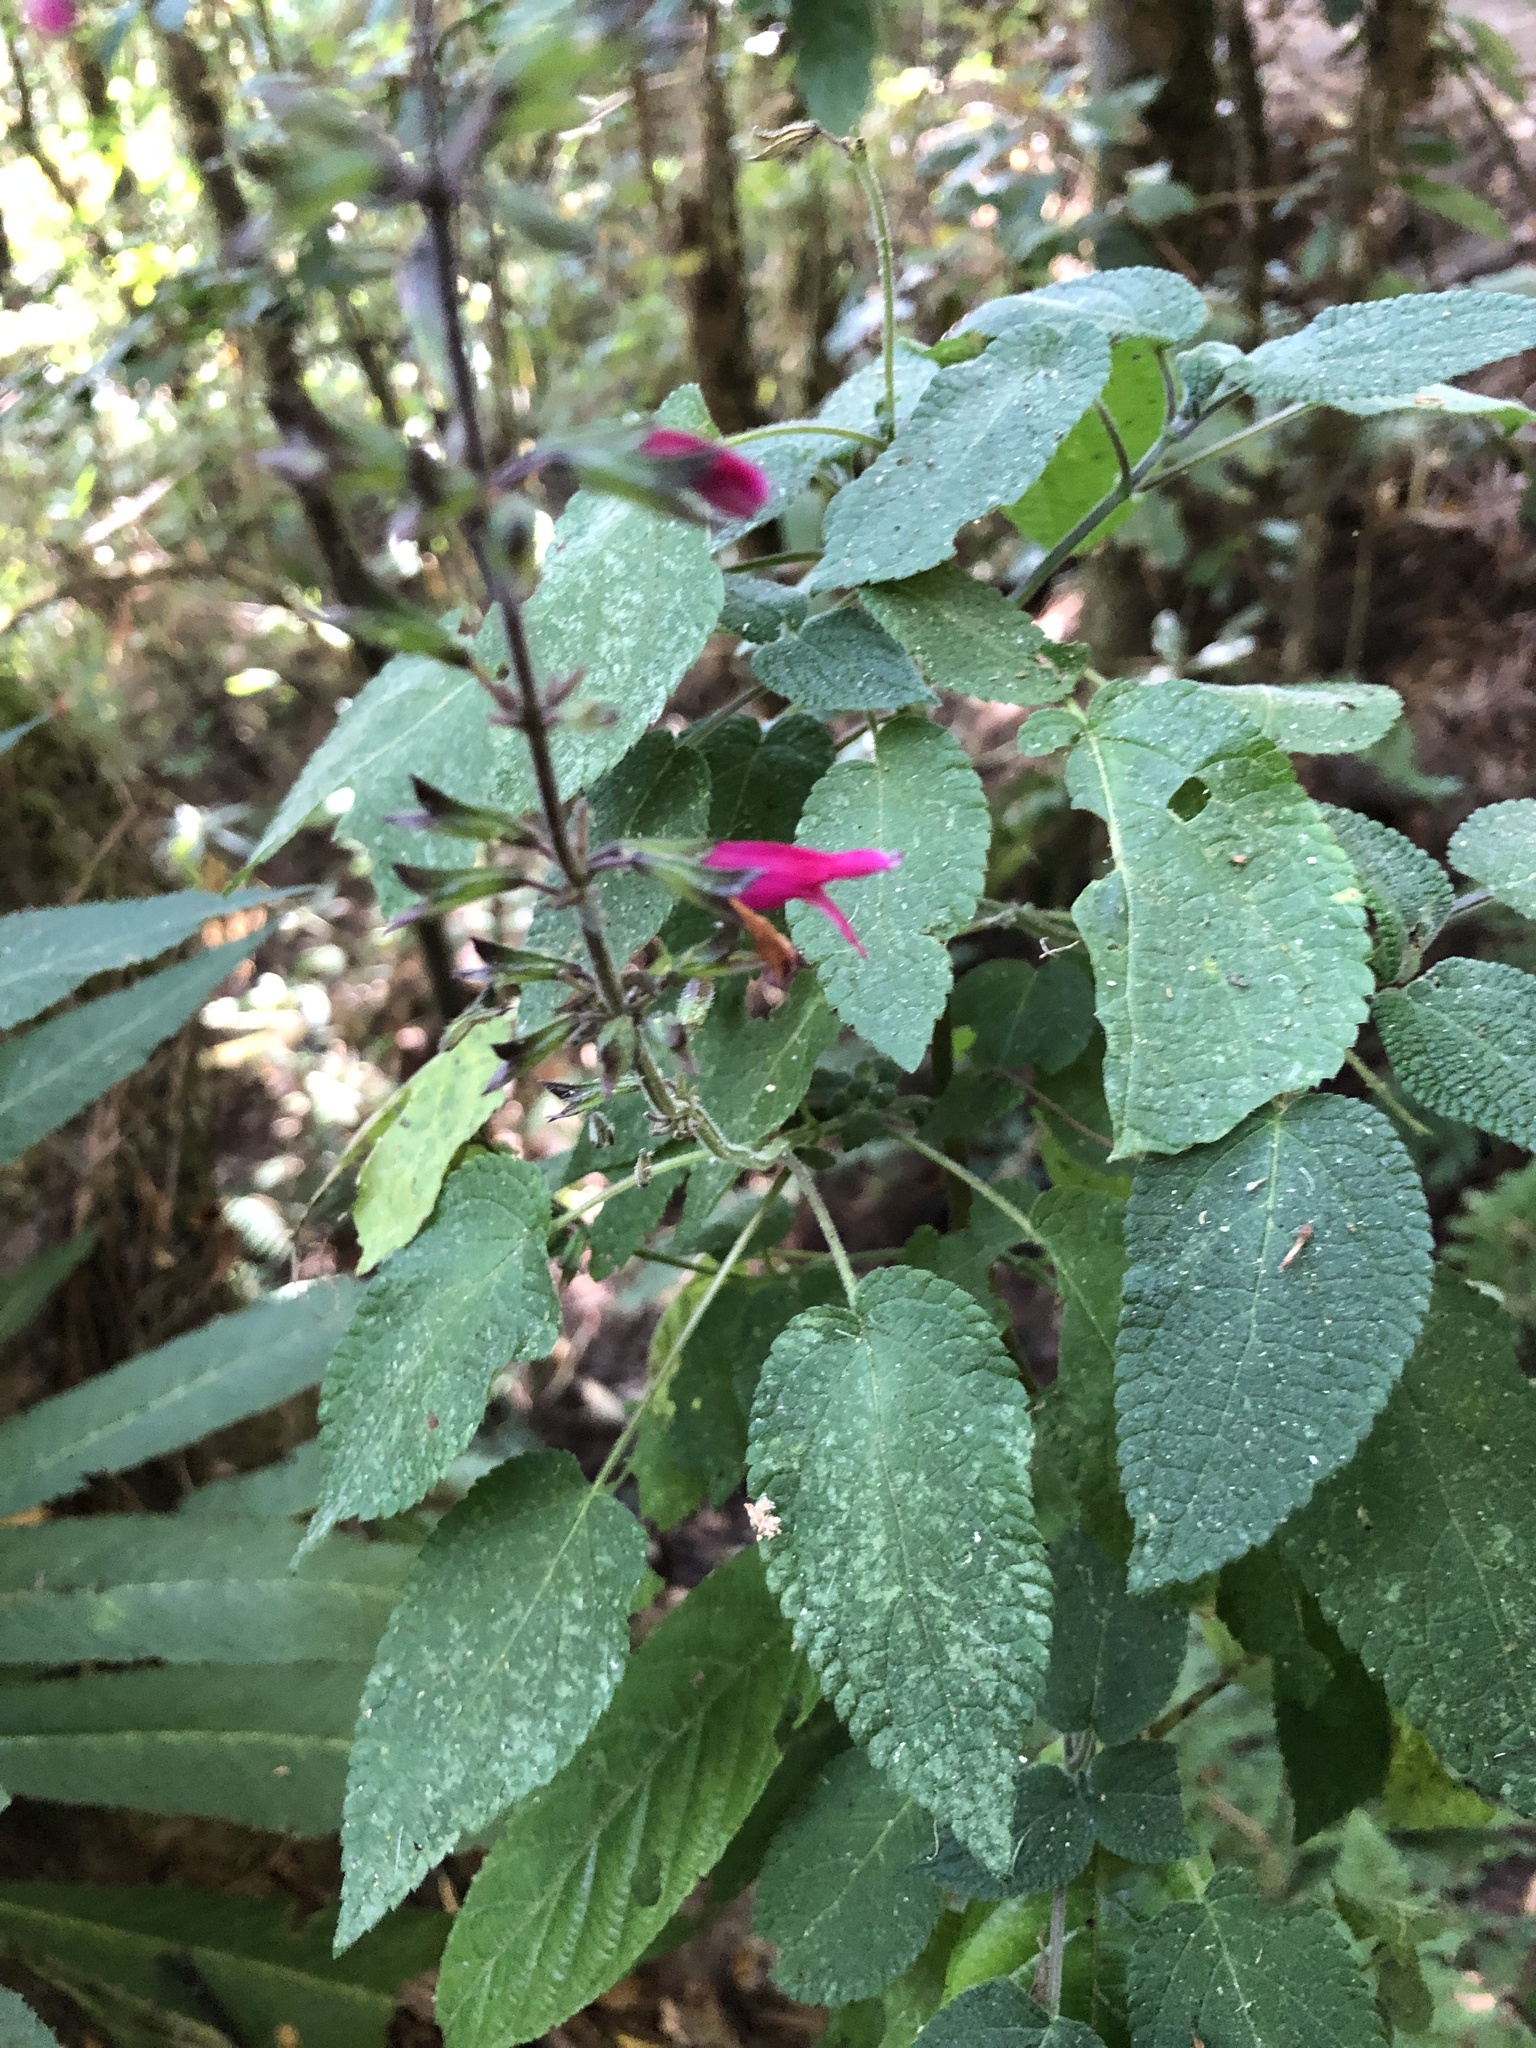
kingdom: Plantae
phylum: Tracheophyta
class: Magnoliopsida
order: Lamiales
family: Lamiaceae
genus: Salvia
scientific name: Salvia punicans
